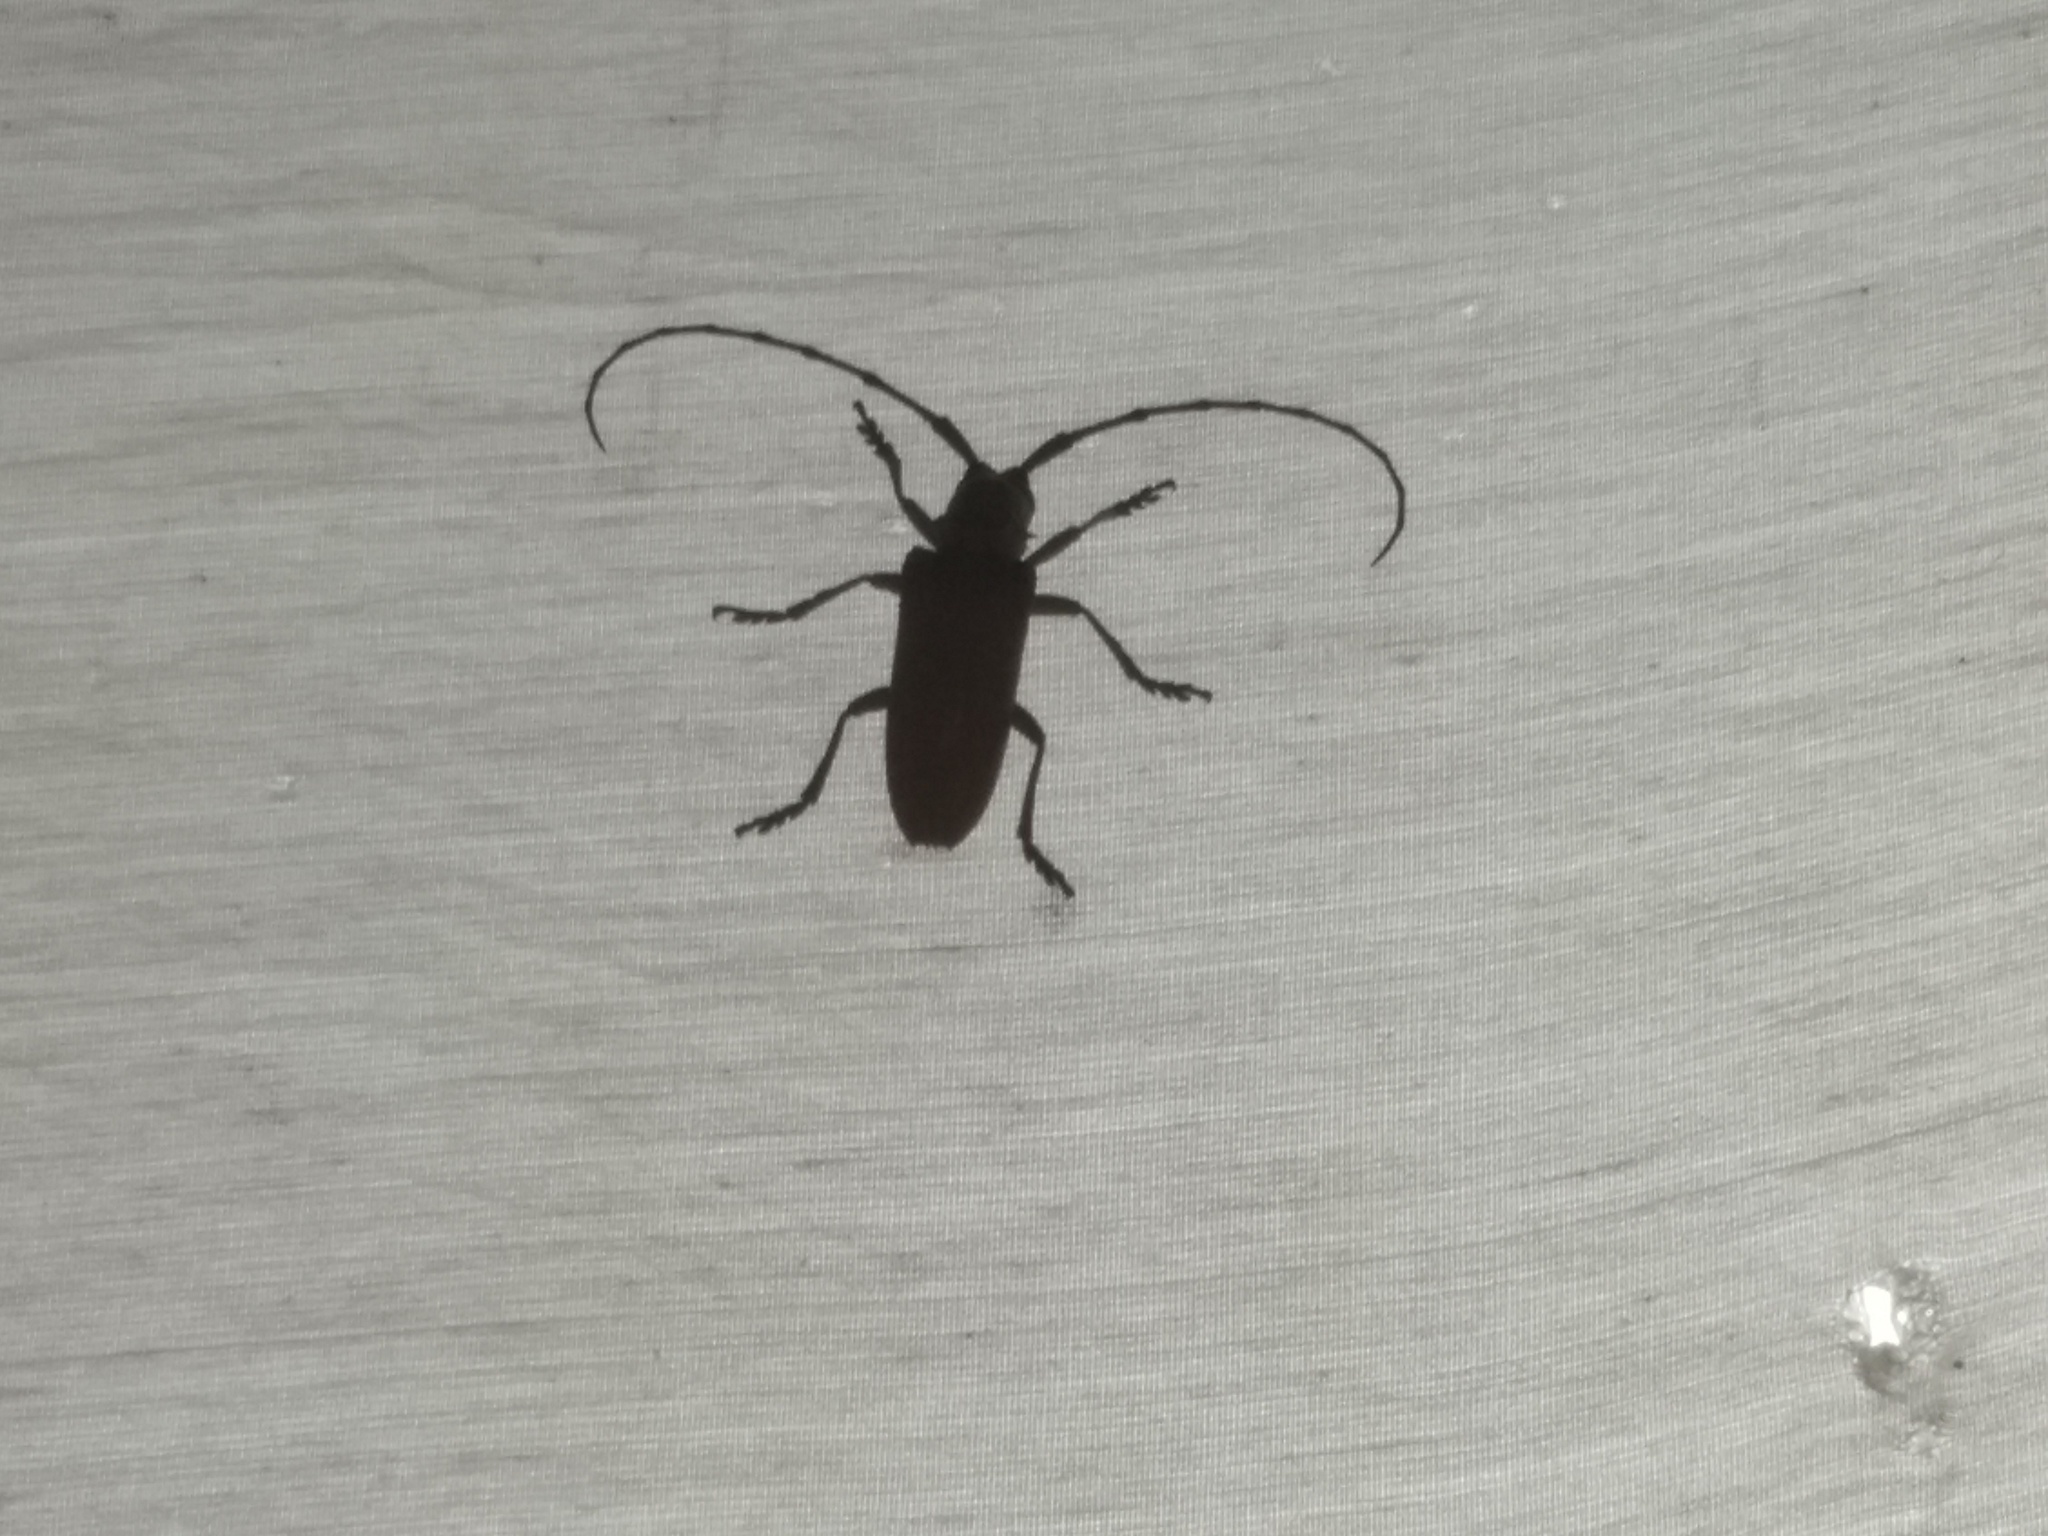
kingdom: Animalia
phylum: Arthropoda
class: Insecta
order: Coleoptera
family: Cerambycidae
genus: Cerosterna
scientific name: Cerosterna scabrator
